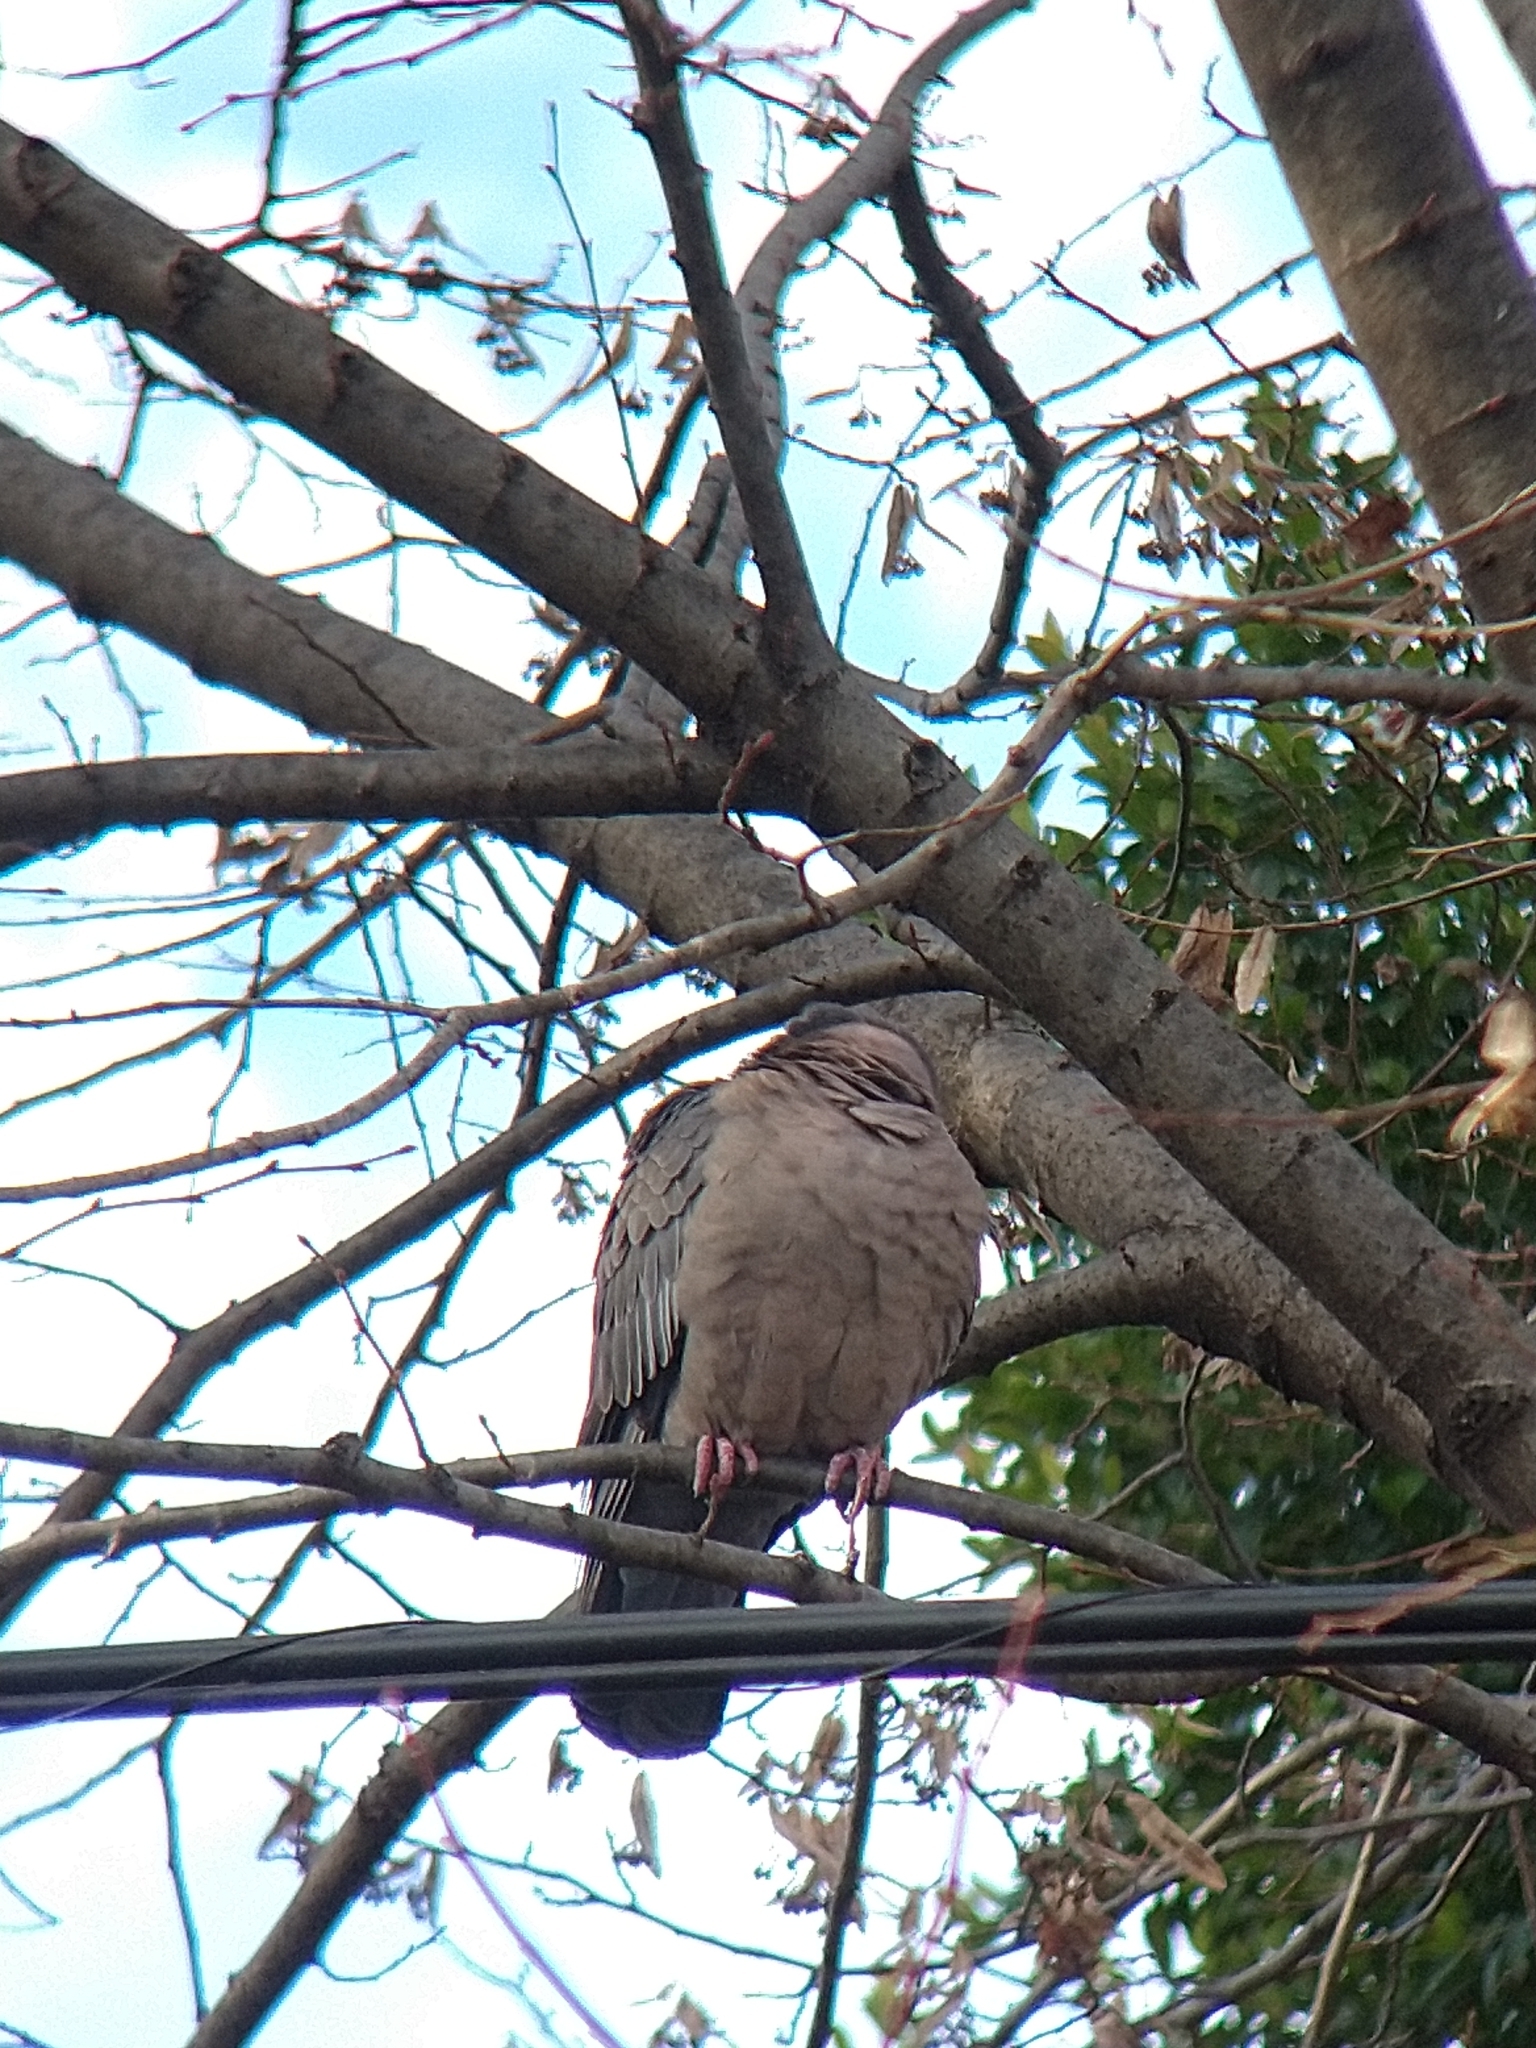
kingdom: Animalia
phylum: Chordata
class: Aves
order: Columbiformes
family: Columbidae
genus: Patagioenas
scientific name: Patagioenas picazuro
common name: Picazuro pigeon
